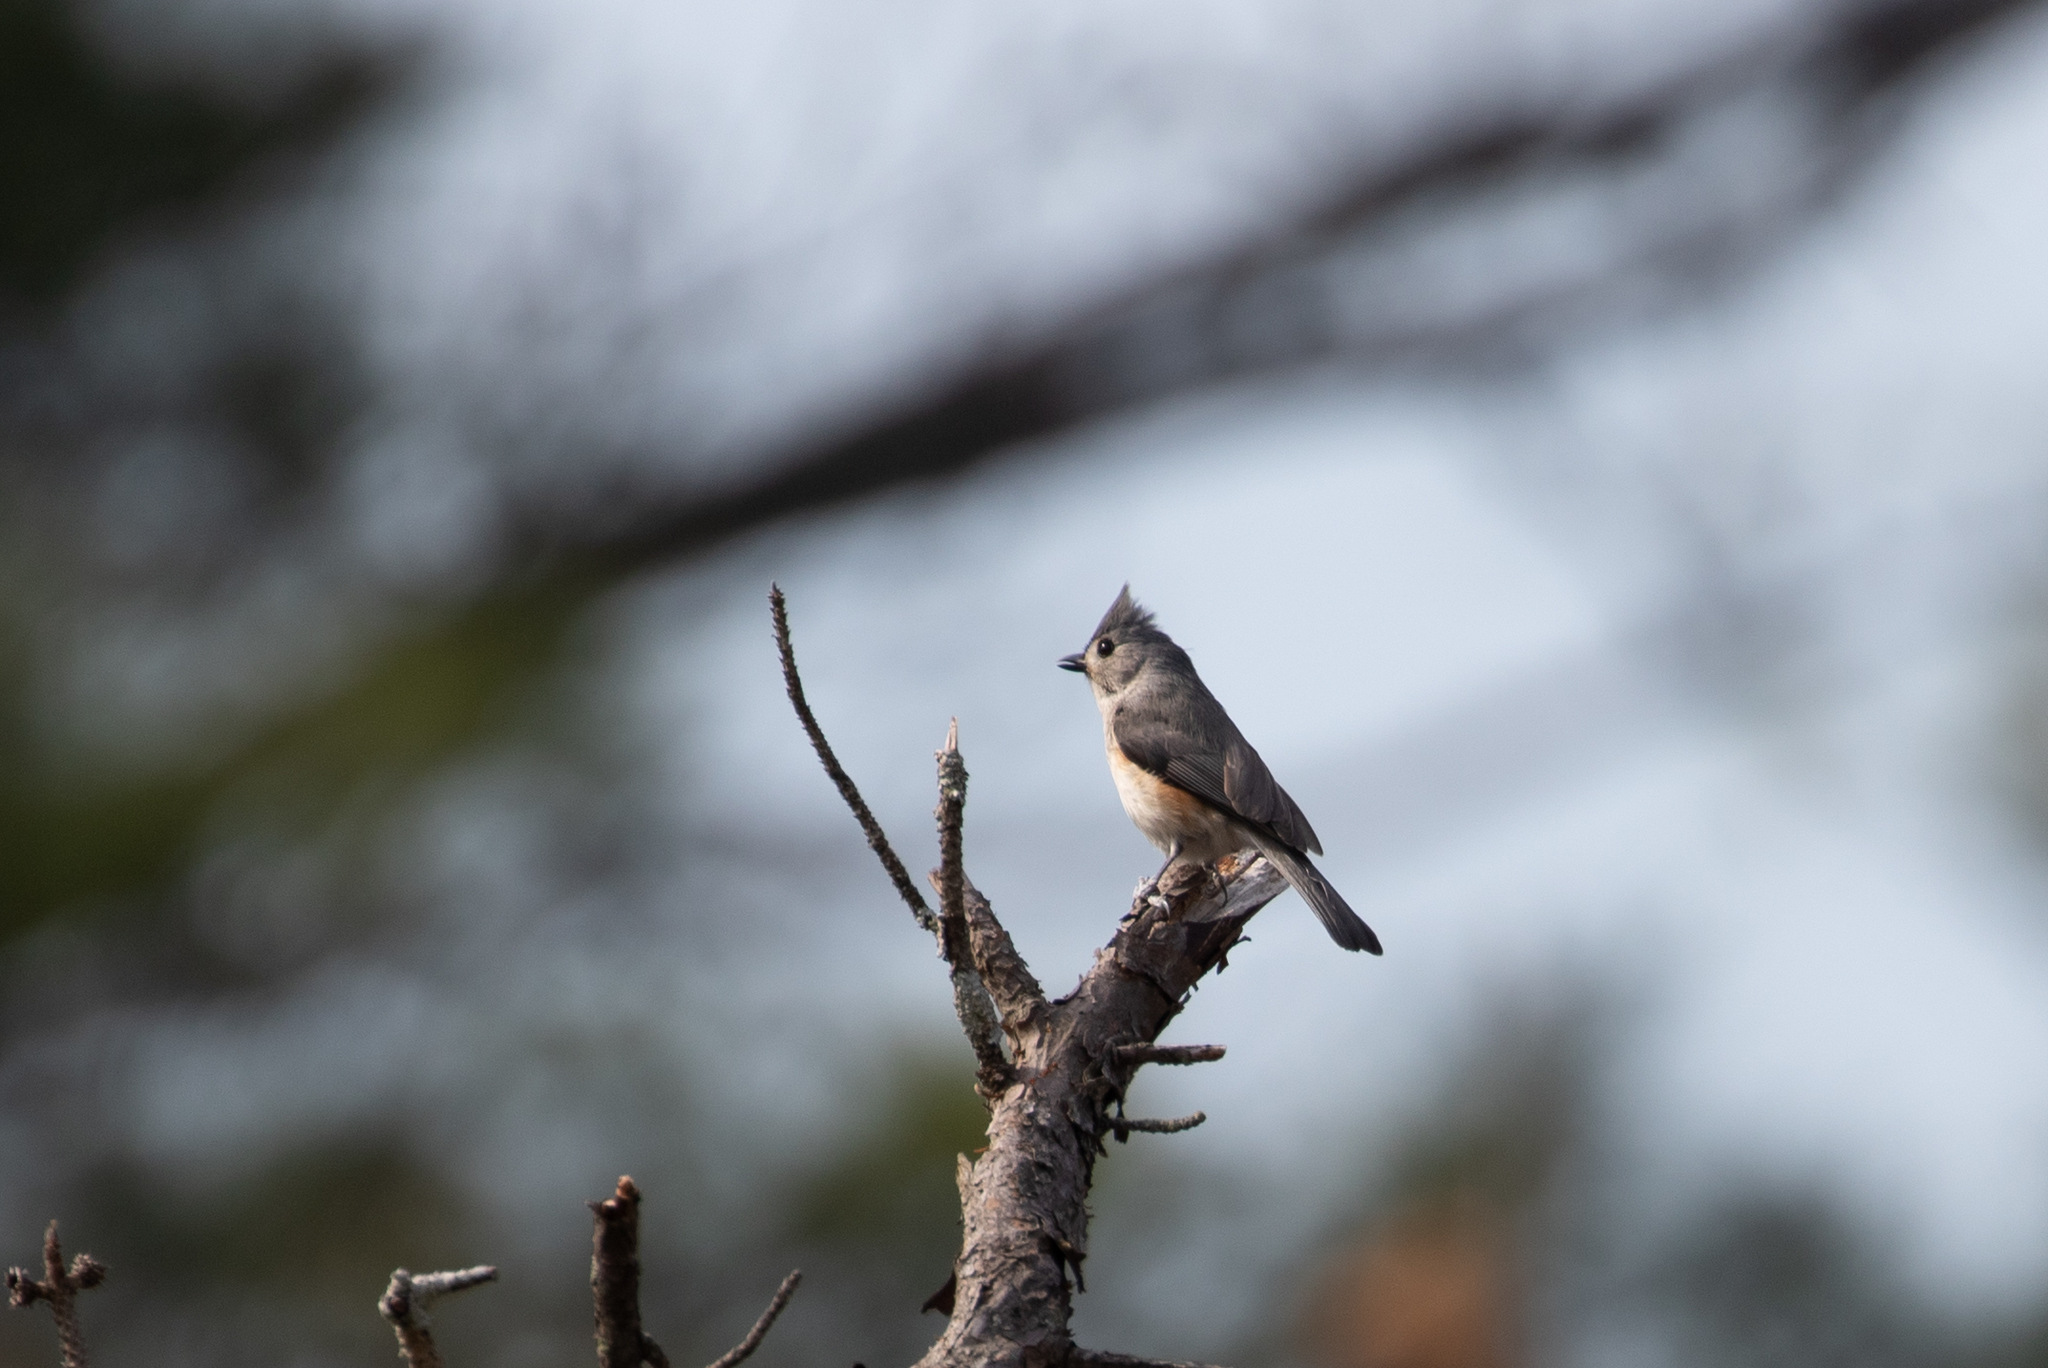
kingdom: Animalia
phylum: Chordata
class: Aves
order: Passeriformes
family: Paridae
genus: Baeolophus
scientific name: Baeolophus bicolor
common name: Tufted titmouse
